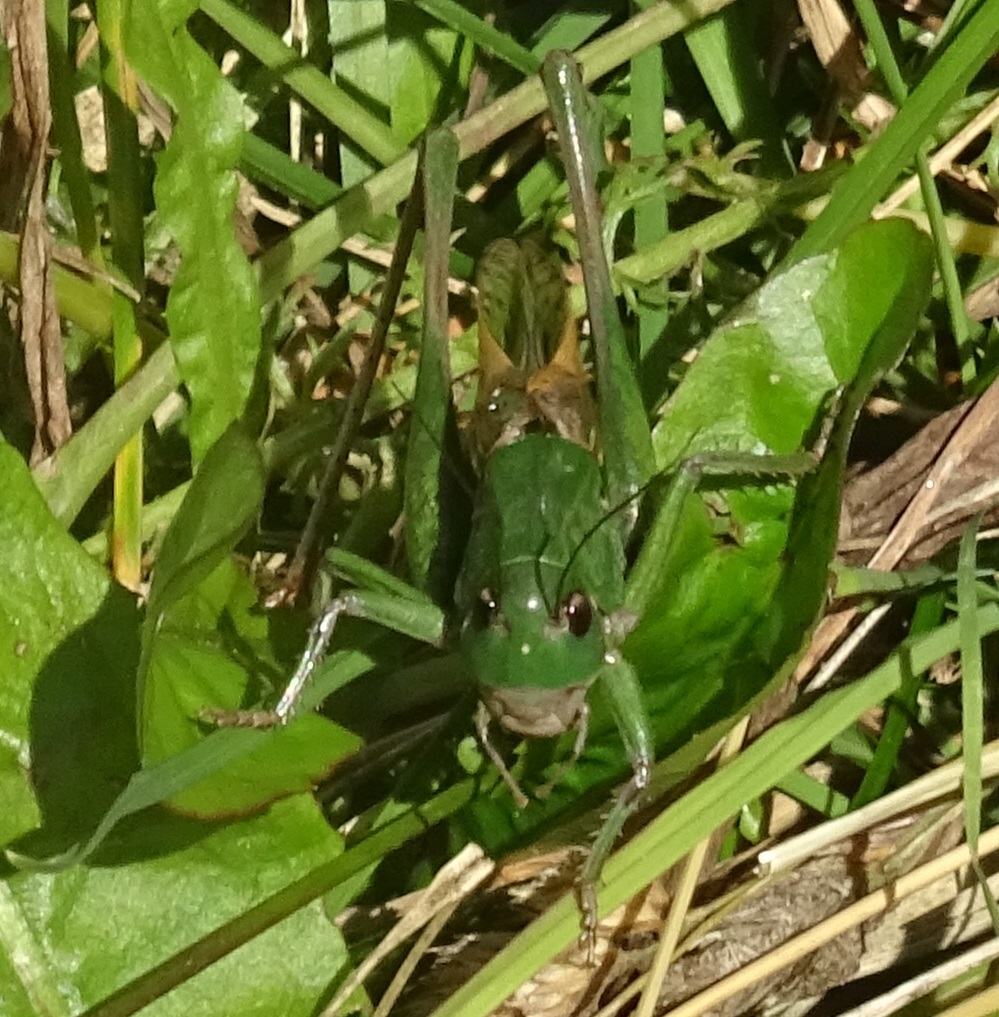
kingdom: Animalia
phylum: Arthropoda
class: Insecta
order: Orthoptera
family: Tettigoniidae
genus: Decticus
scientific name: Decticus verrucivorus
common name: Wart-biter
